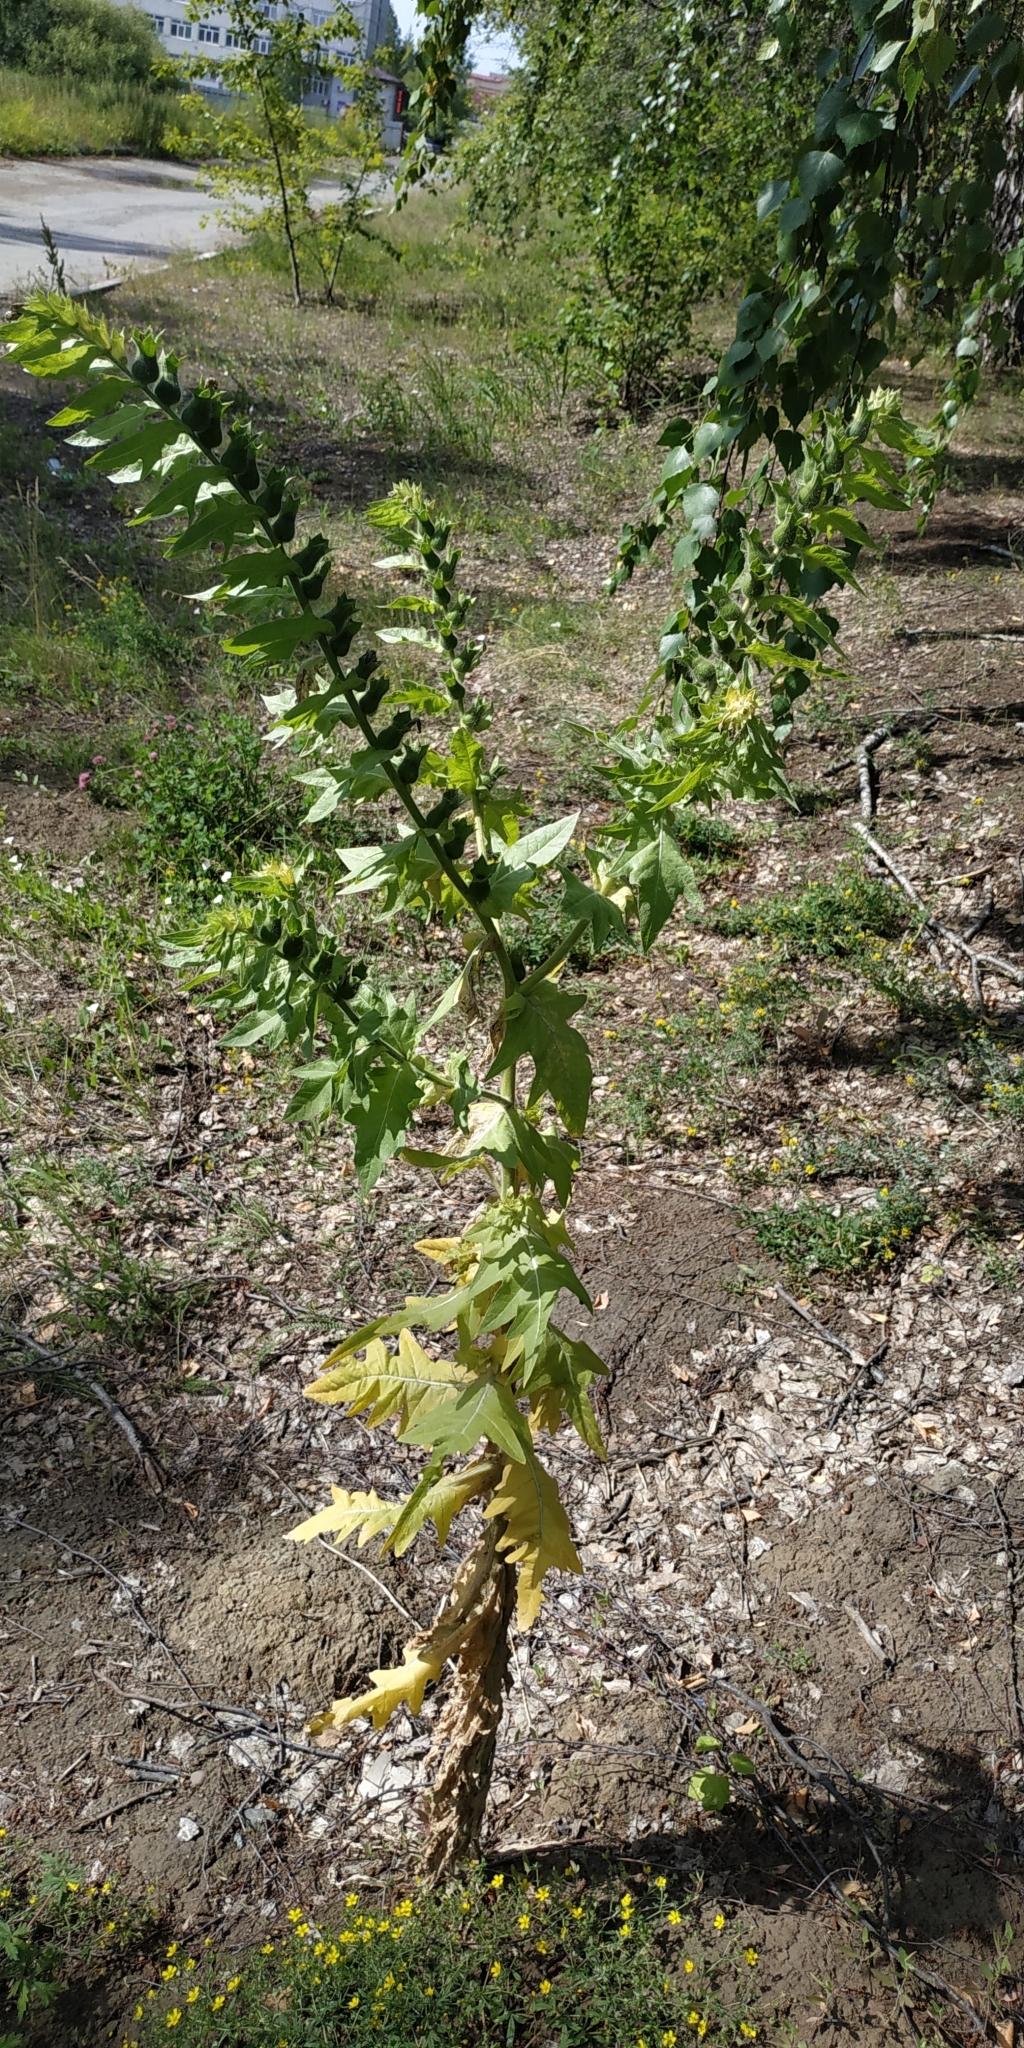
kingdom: Plantae
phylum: Tracheophyta
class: Magnoliopsida
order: Solanales
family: Solanaceae
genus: Hyoscyamus
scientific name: Hyoscyamus niger
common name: Henbane
